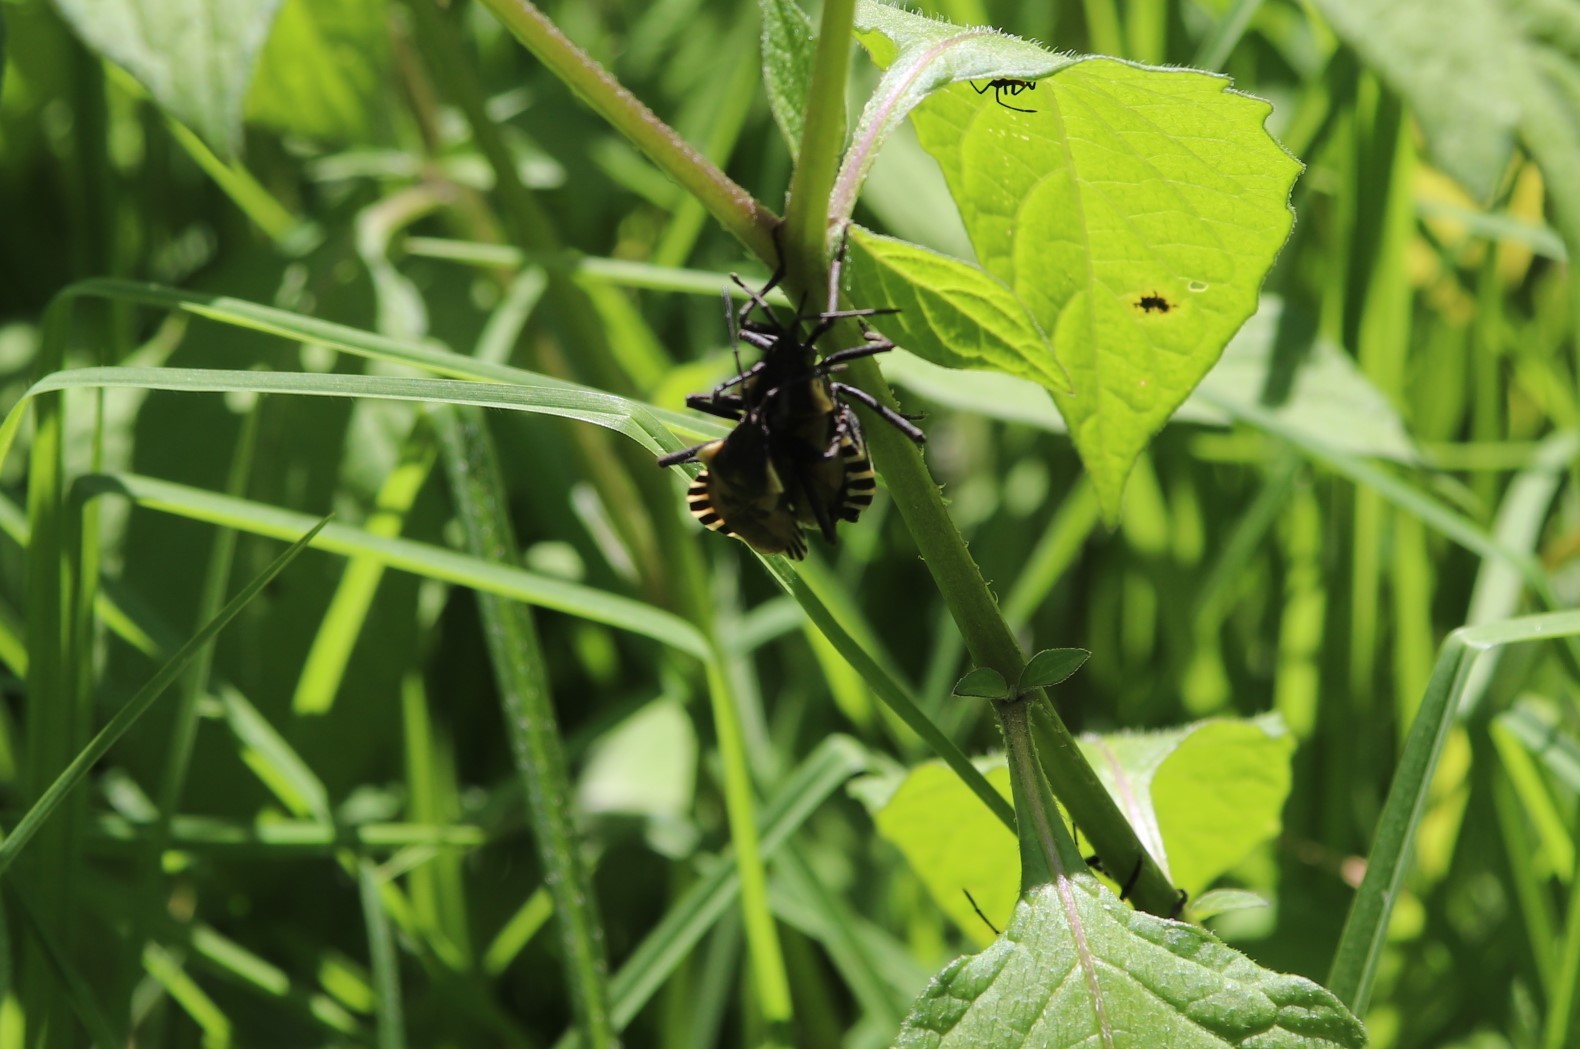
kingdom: Animalia
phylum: Arthropoda
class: Insecta
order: Hemiptera
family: Coreidae
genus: Spartocera
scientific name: Spartocera alternata
